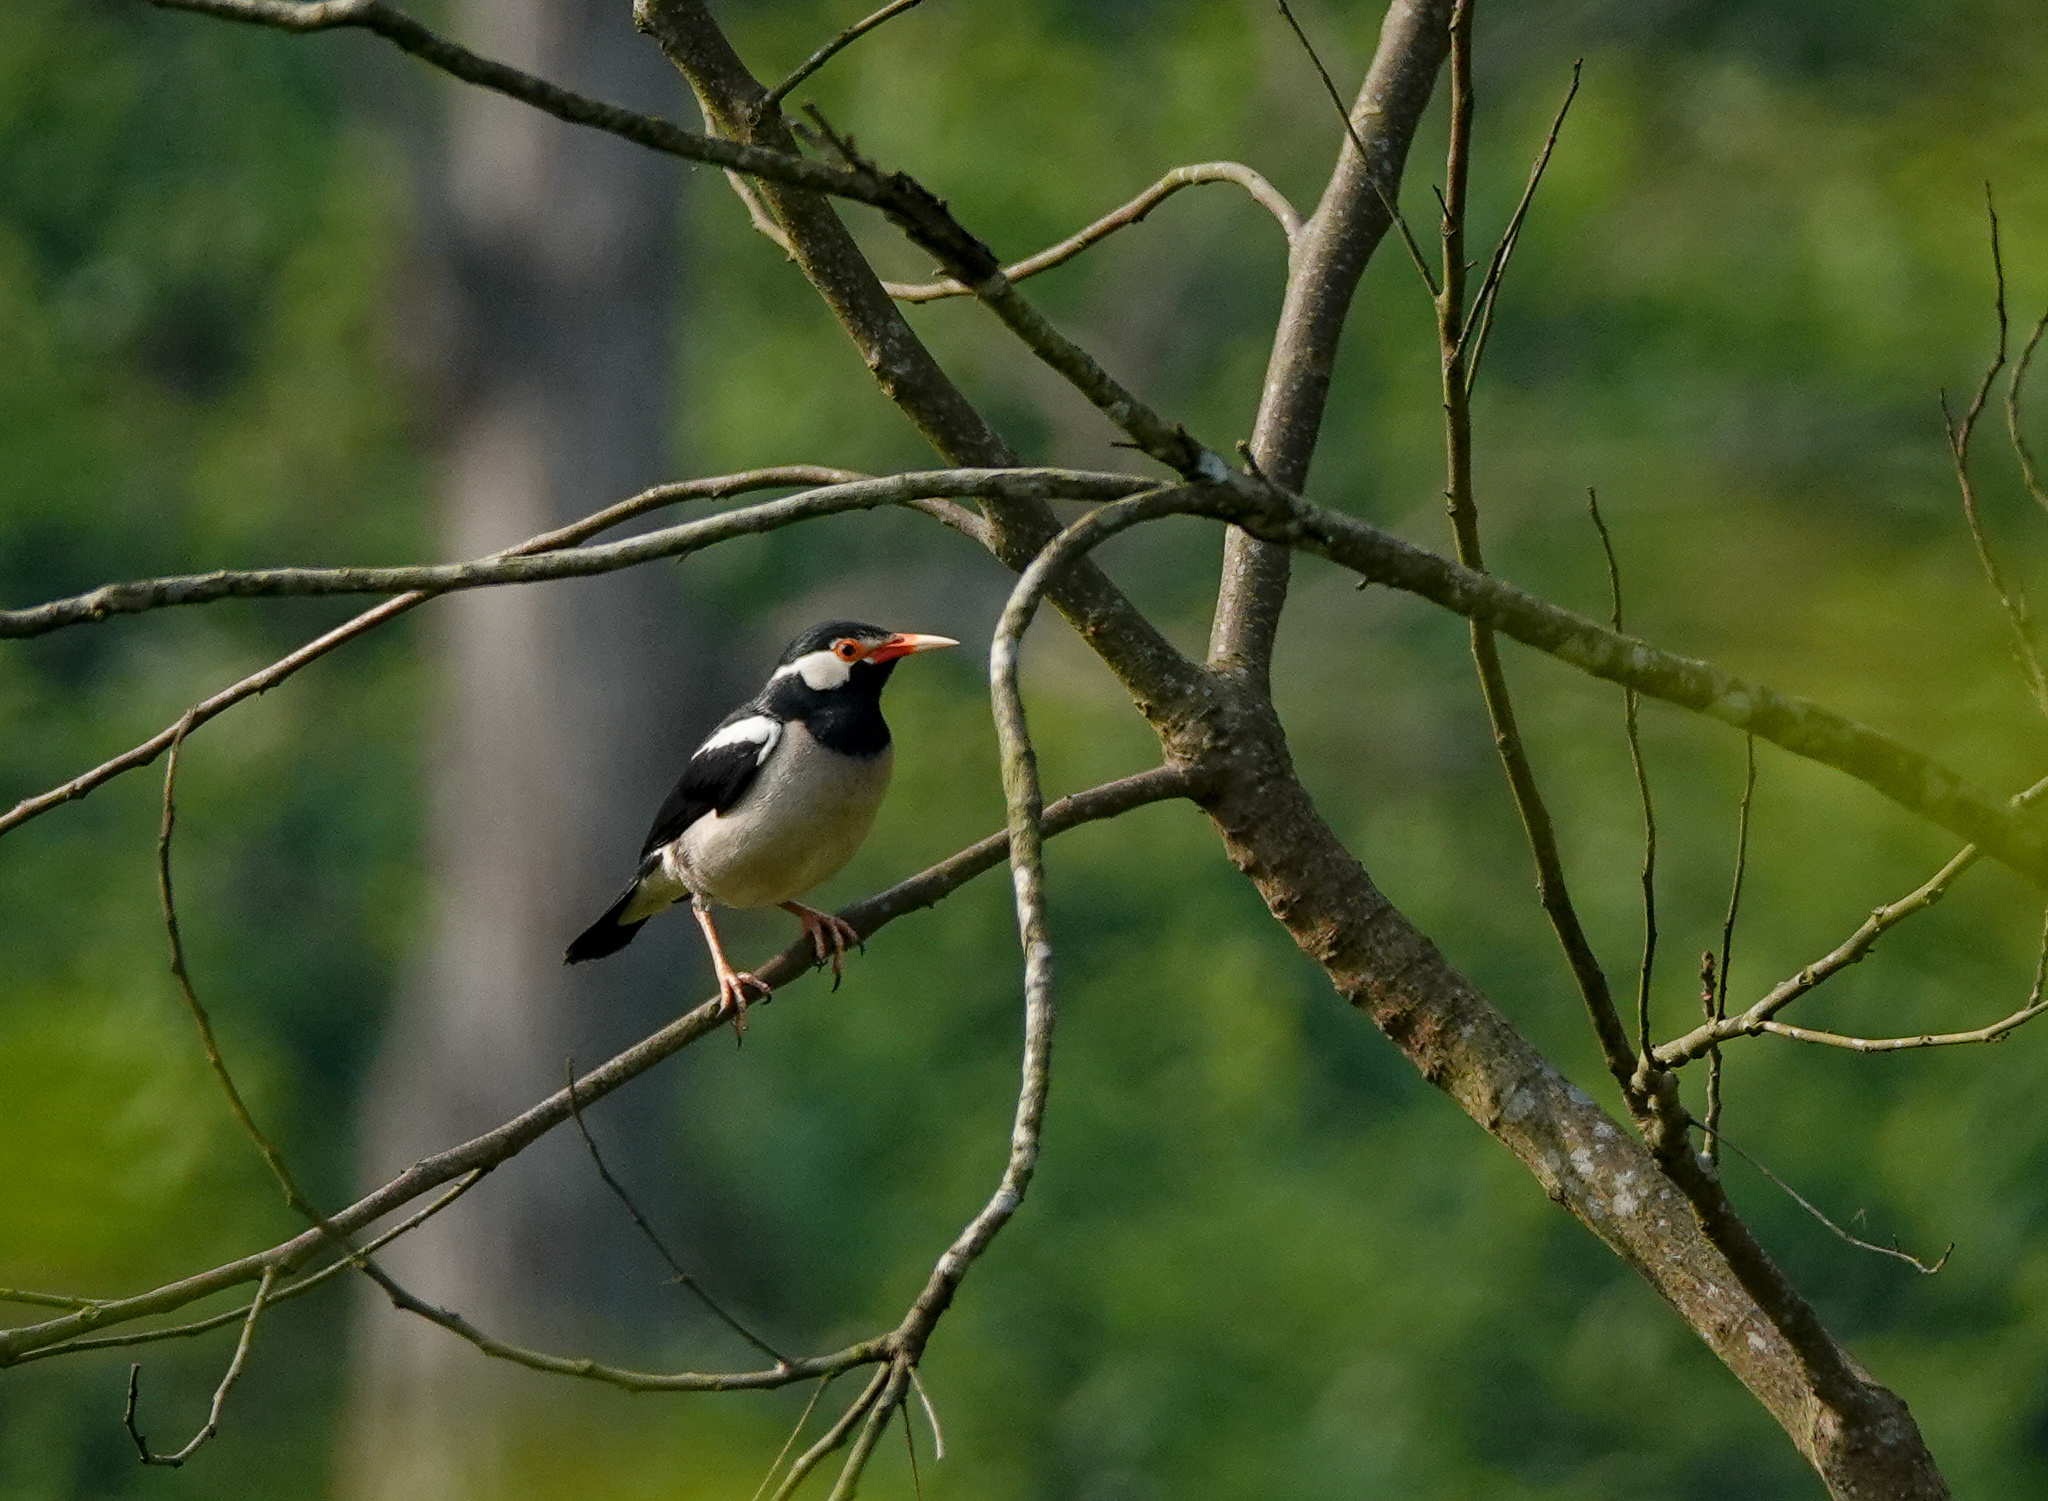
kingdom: Animalia
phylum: Chordata
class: Aves
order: Passeriformes
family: Sturnidae
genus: Gracupica
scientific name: Gracupica contra
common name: Pied myna
